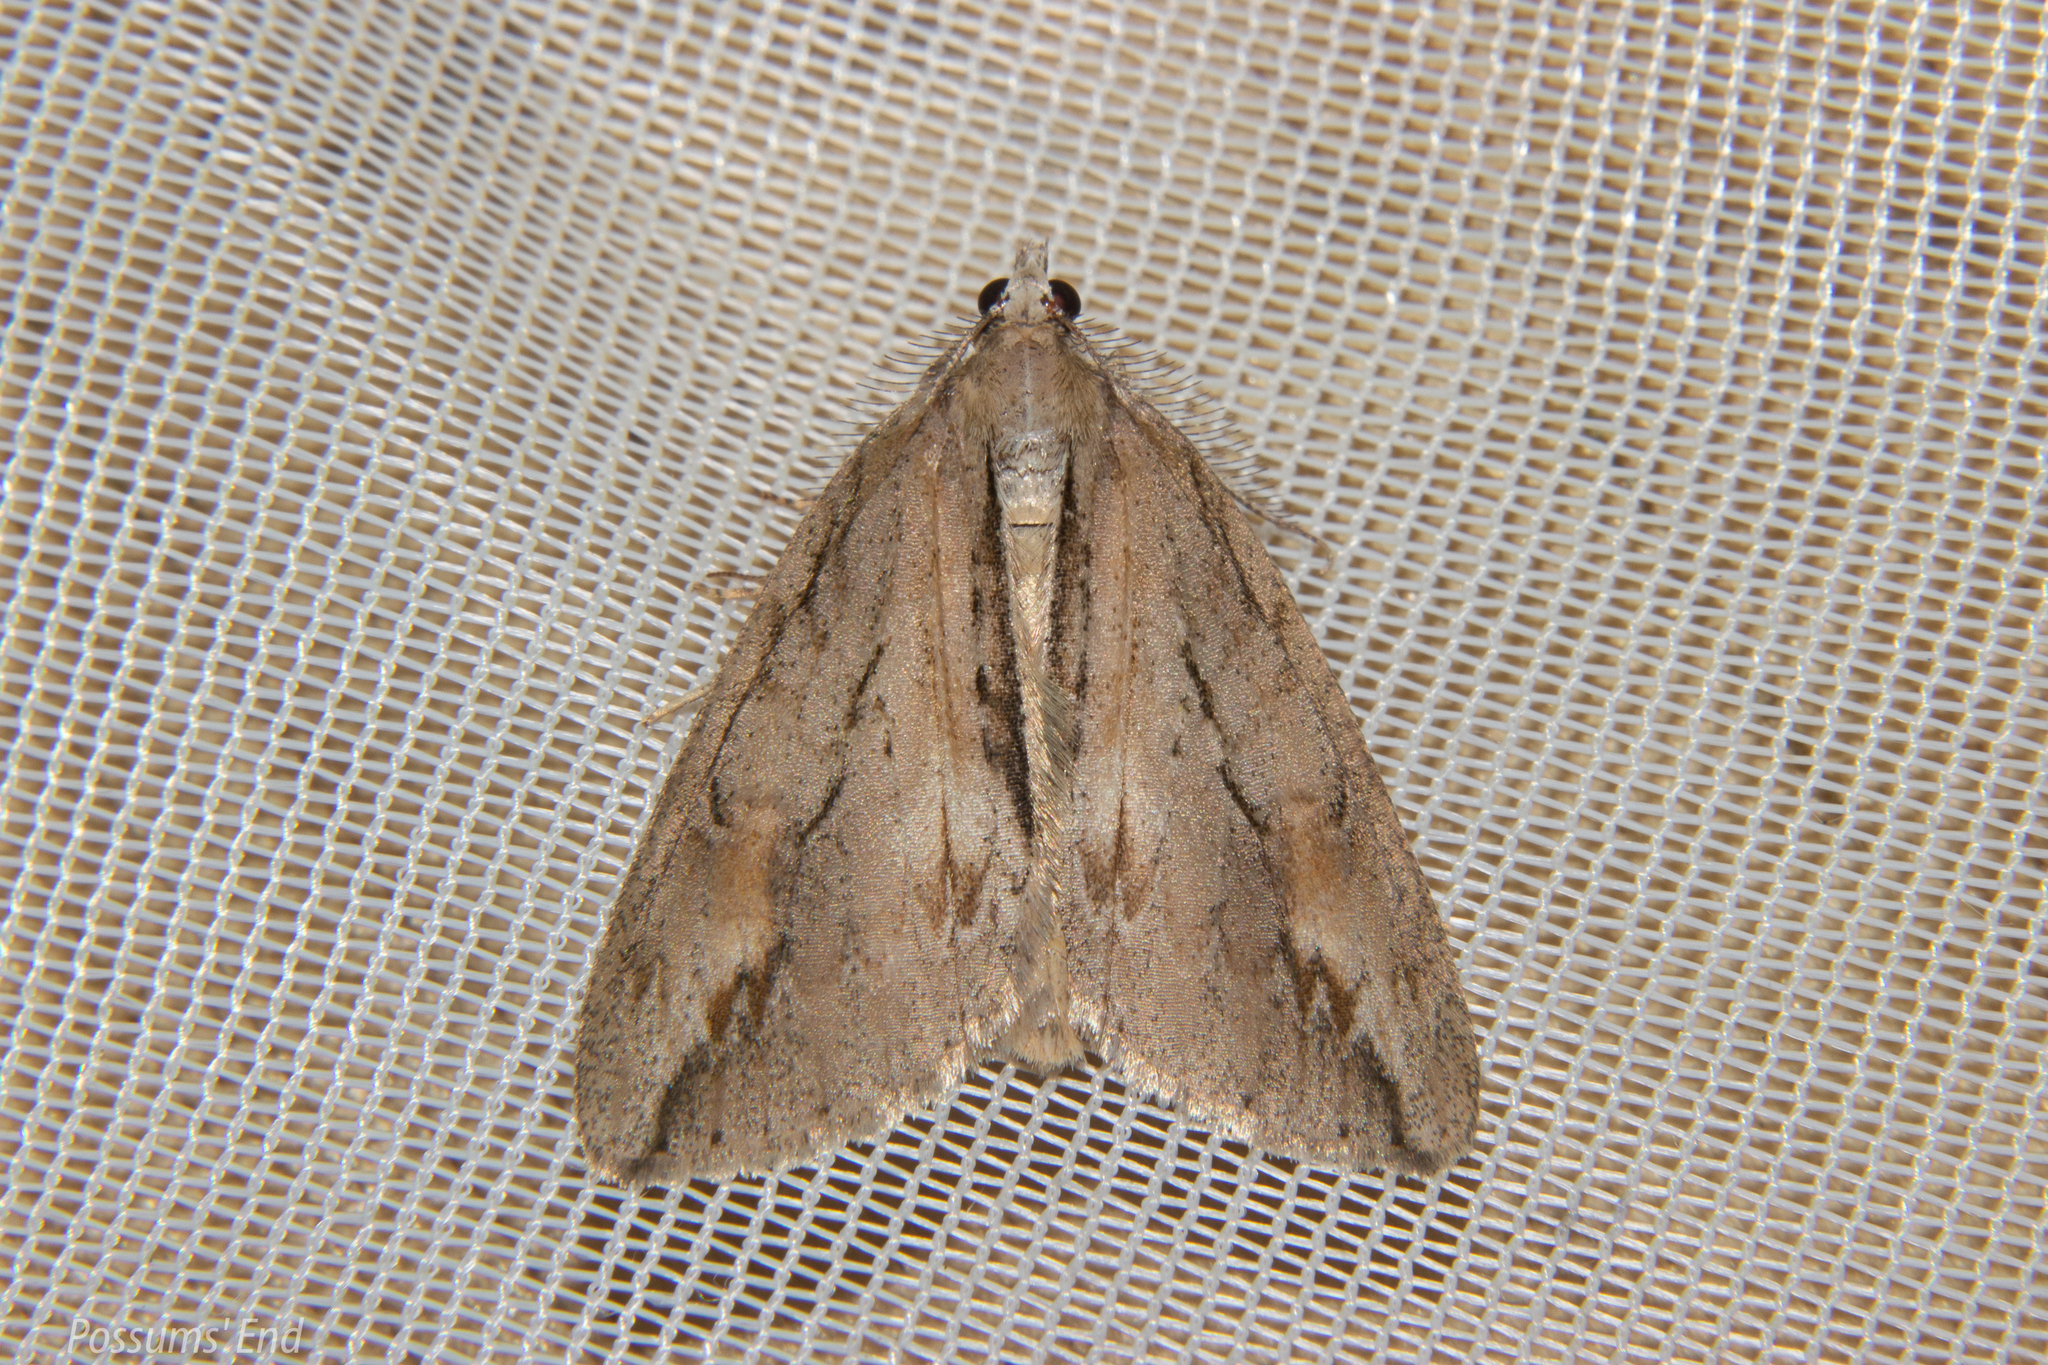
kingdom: Animalia
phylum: Arthropoda
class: Insecta
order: Lepidoptera
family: Geometridae
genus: Pseudocoremia
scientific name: Pseudocoremia lupinata
